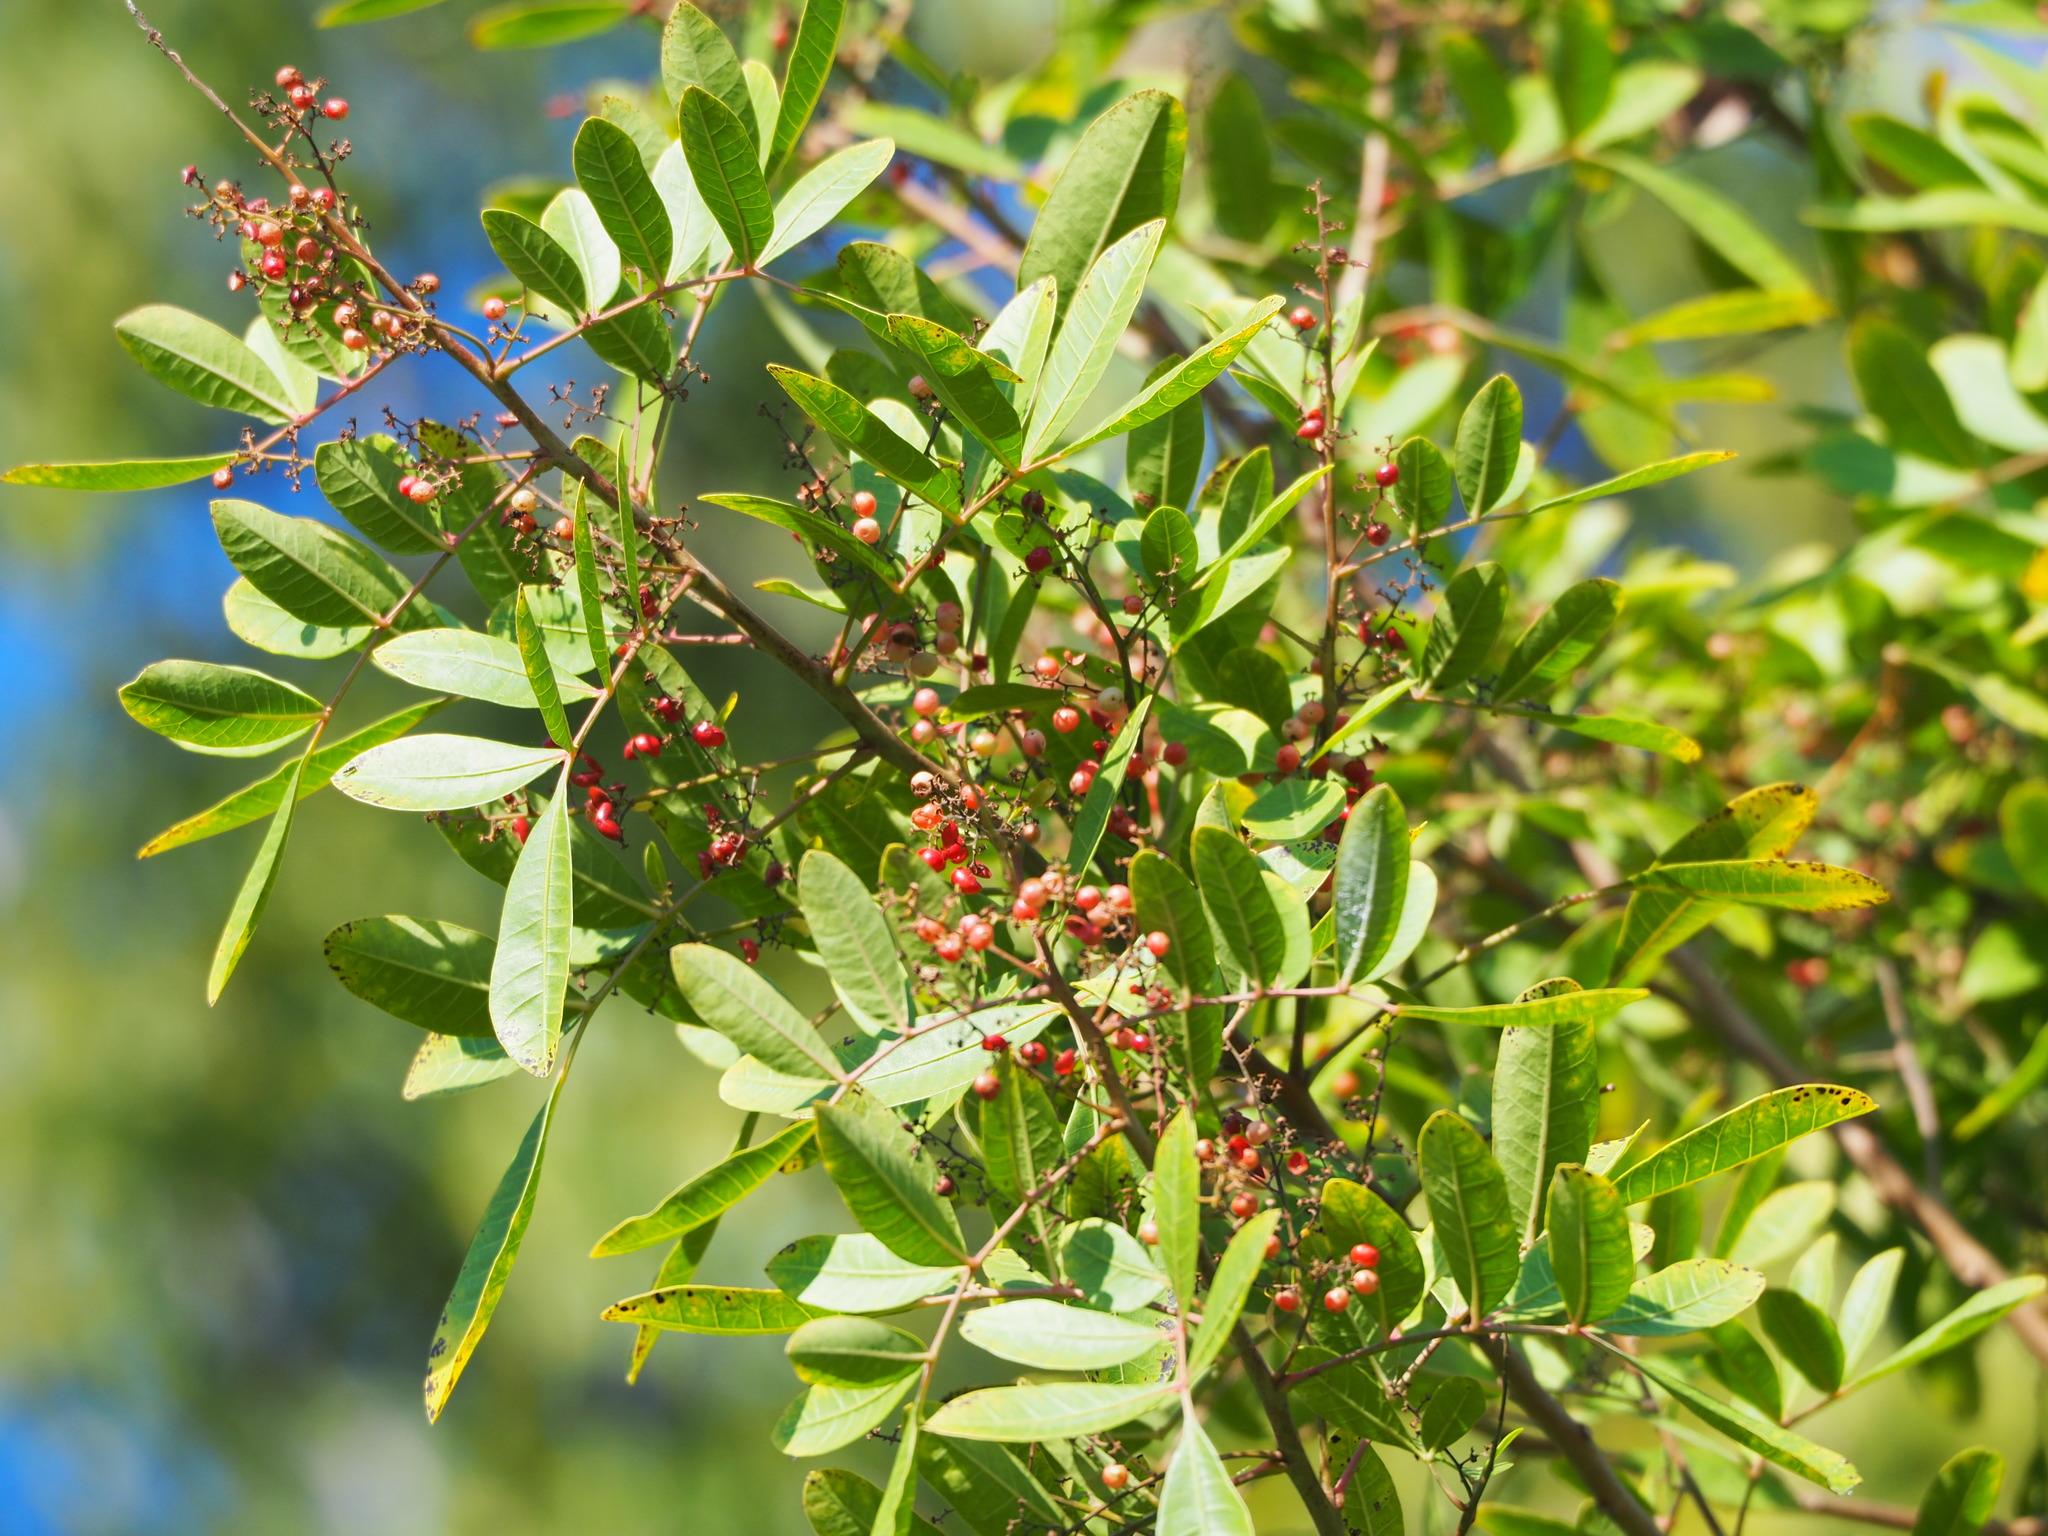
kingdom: Plantae
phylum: Tracheophyta
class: Magnoliopsida
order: Sapindales
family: Anacardiaceae
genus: Schinus
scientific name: Schinus terebinthifolia
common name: Brazilian peppertree
